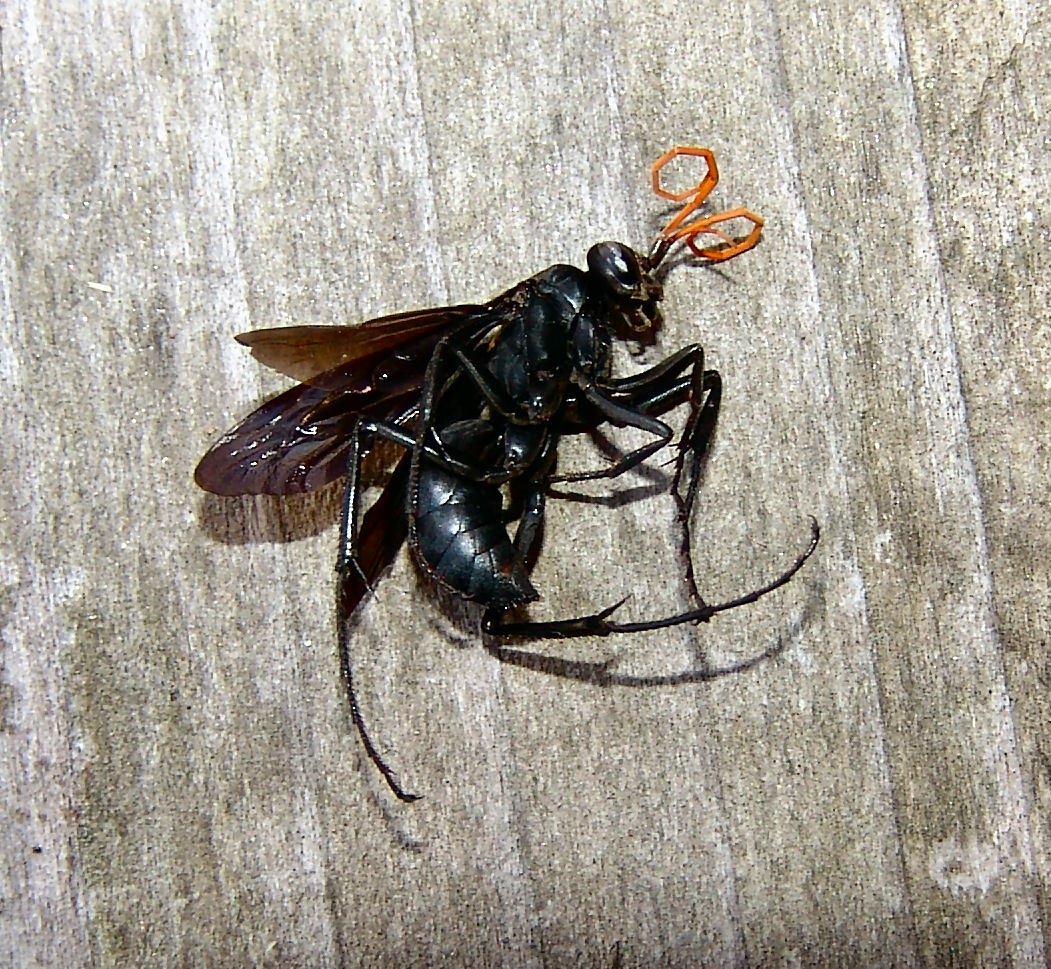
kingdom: Animalia
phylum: Arthropoda
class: Insecta
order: Hymenoptera
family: Pompilidae
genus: Entypus
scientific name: Entypus fulvicornis
